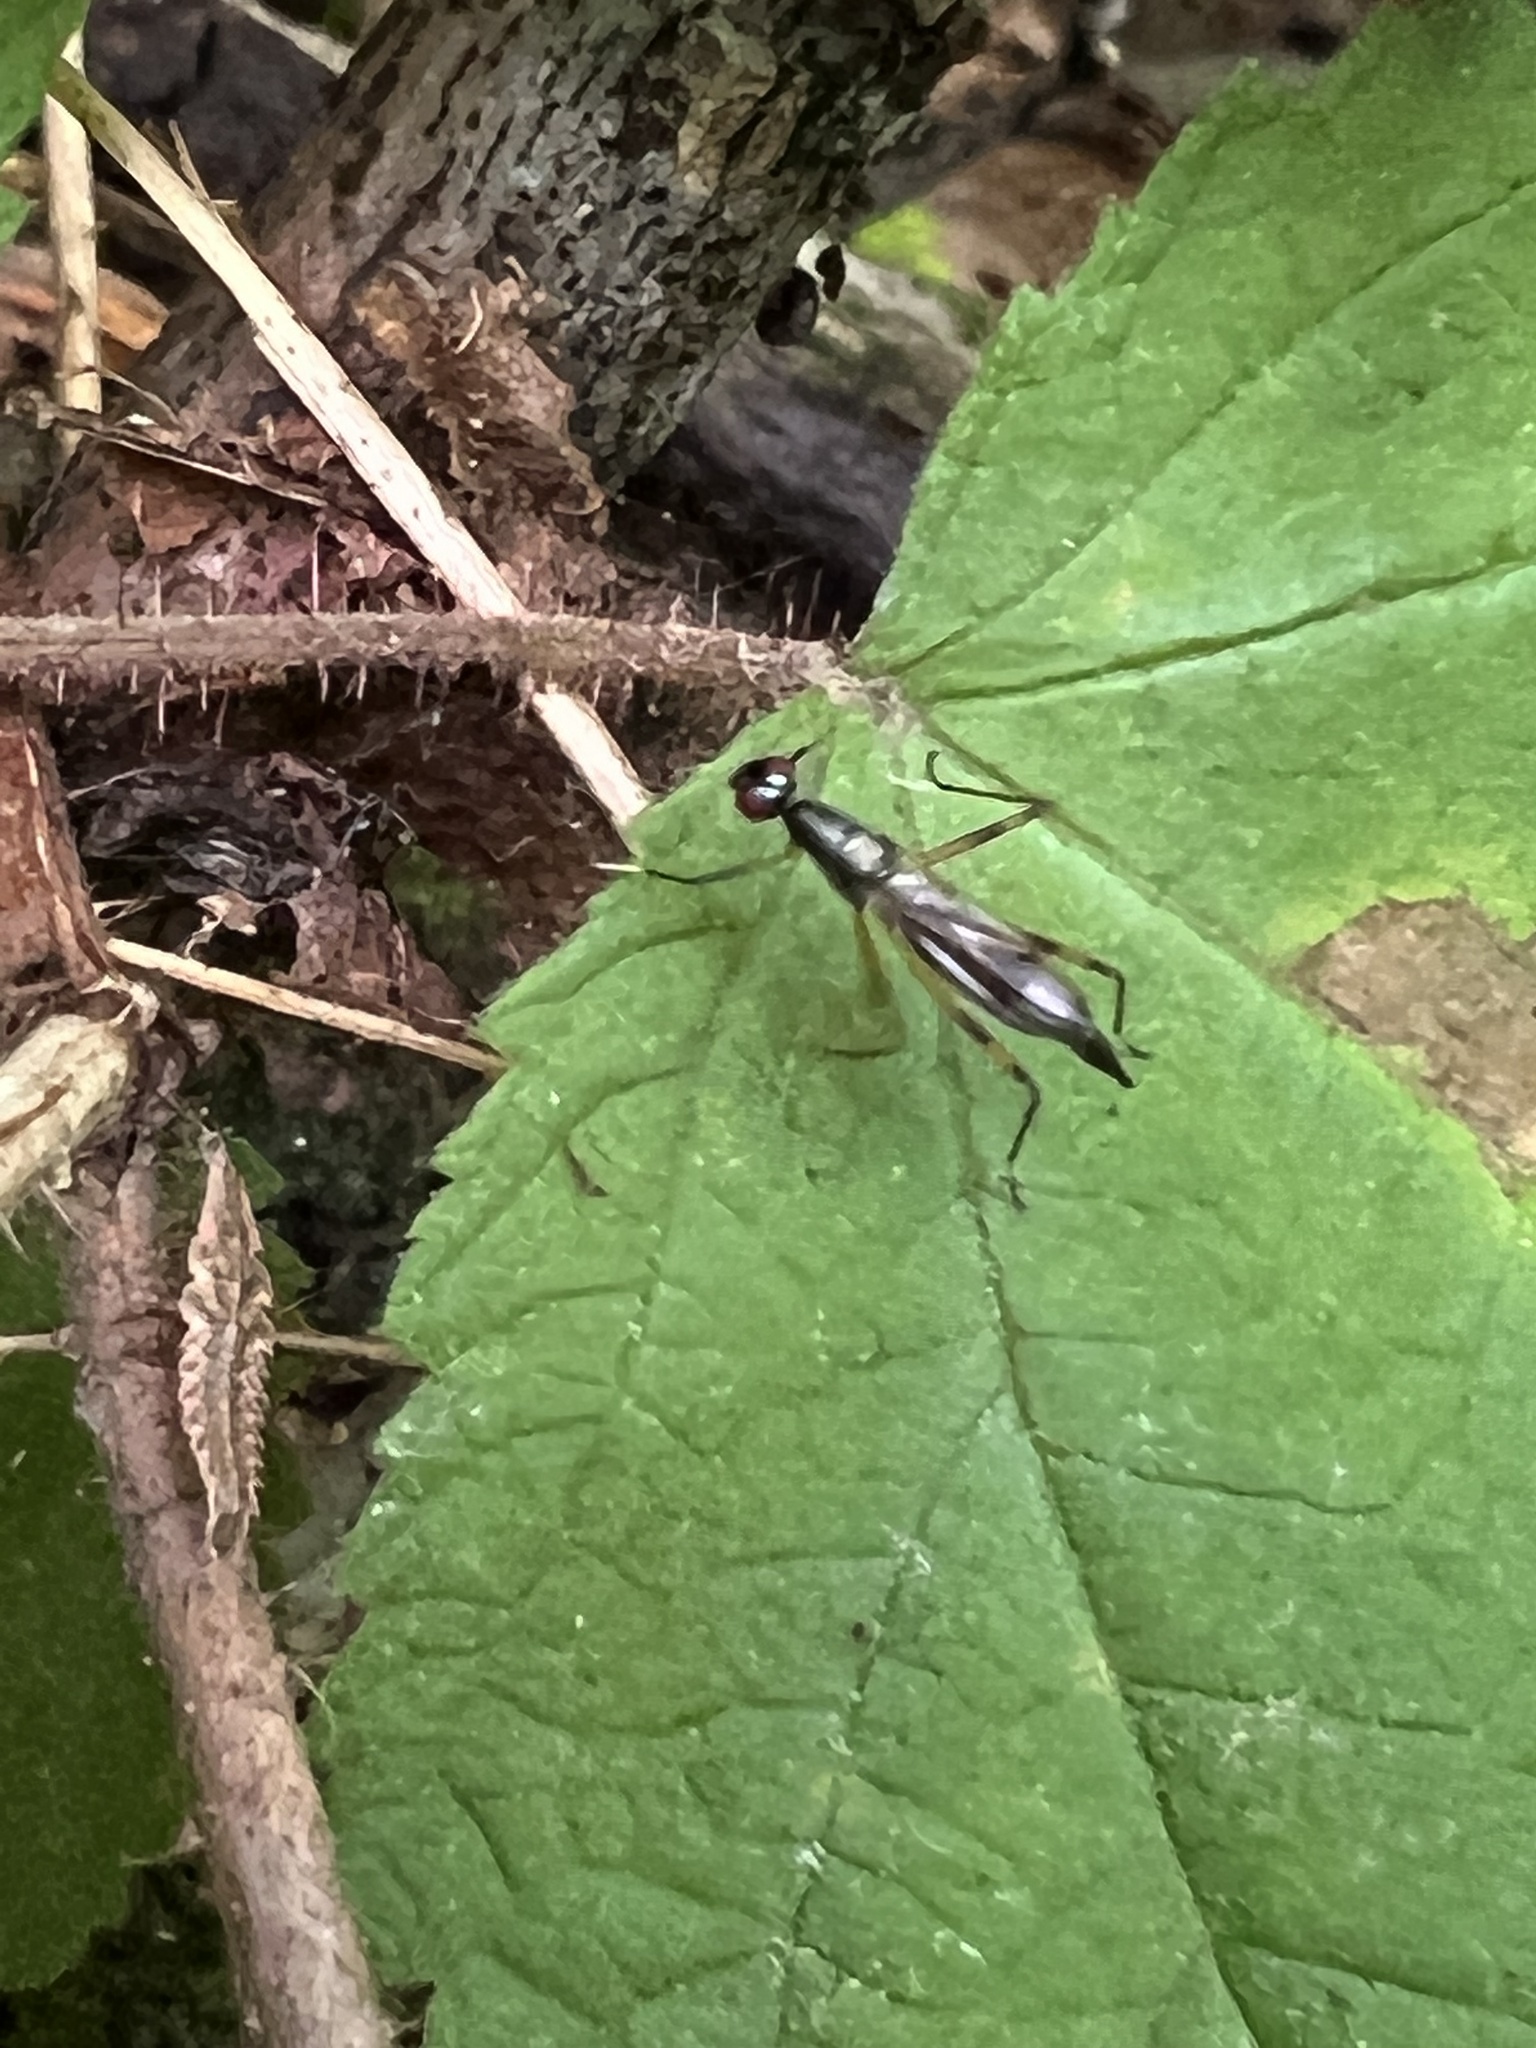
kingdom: Animalia
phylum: Arthropoda
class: Insecta
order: Diptera
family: Micropezidae
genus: Rainieria
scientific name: Rainieria antennaepes
